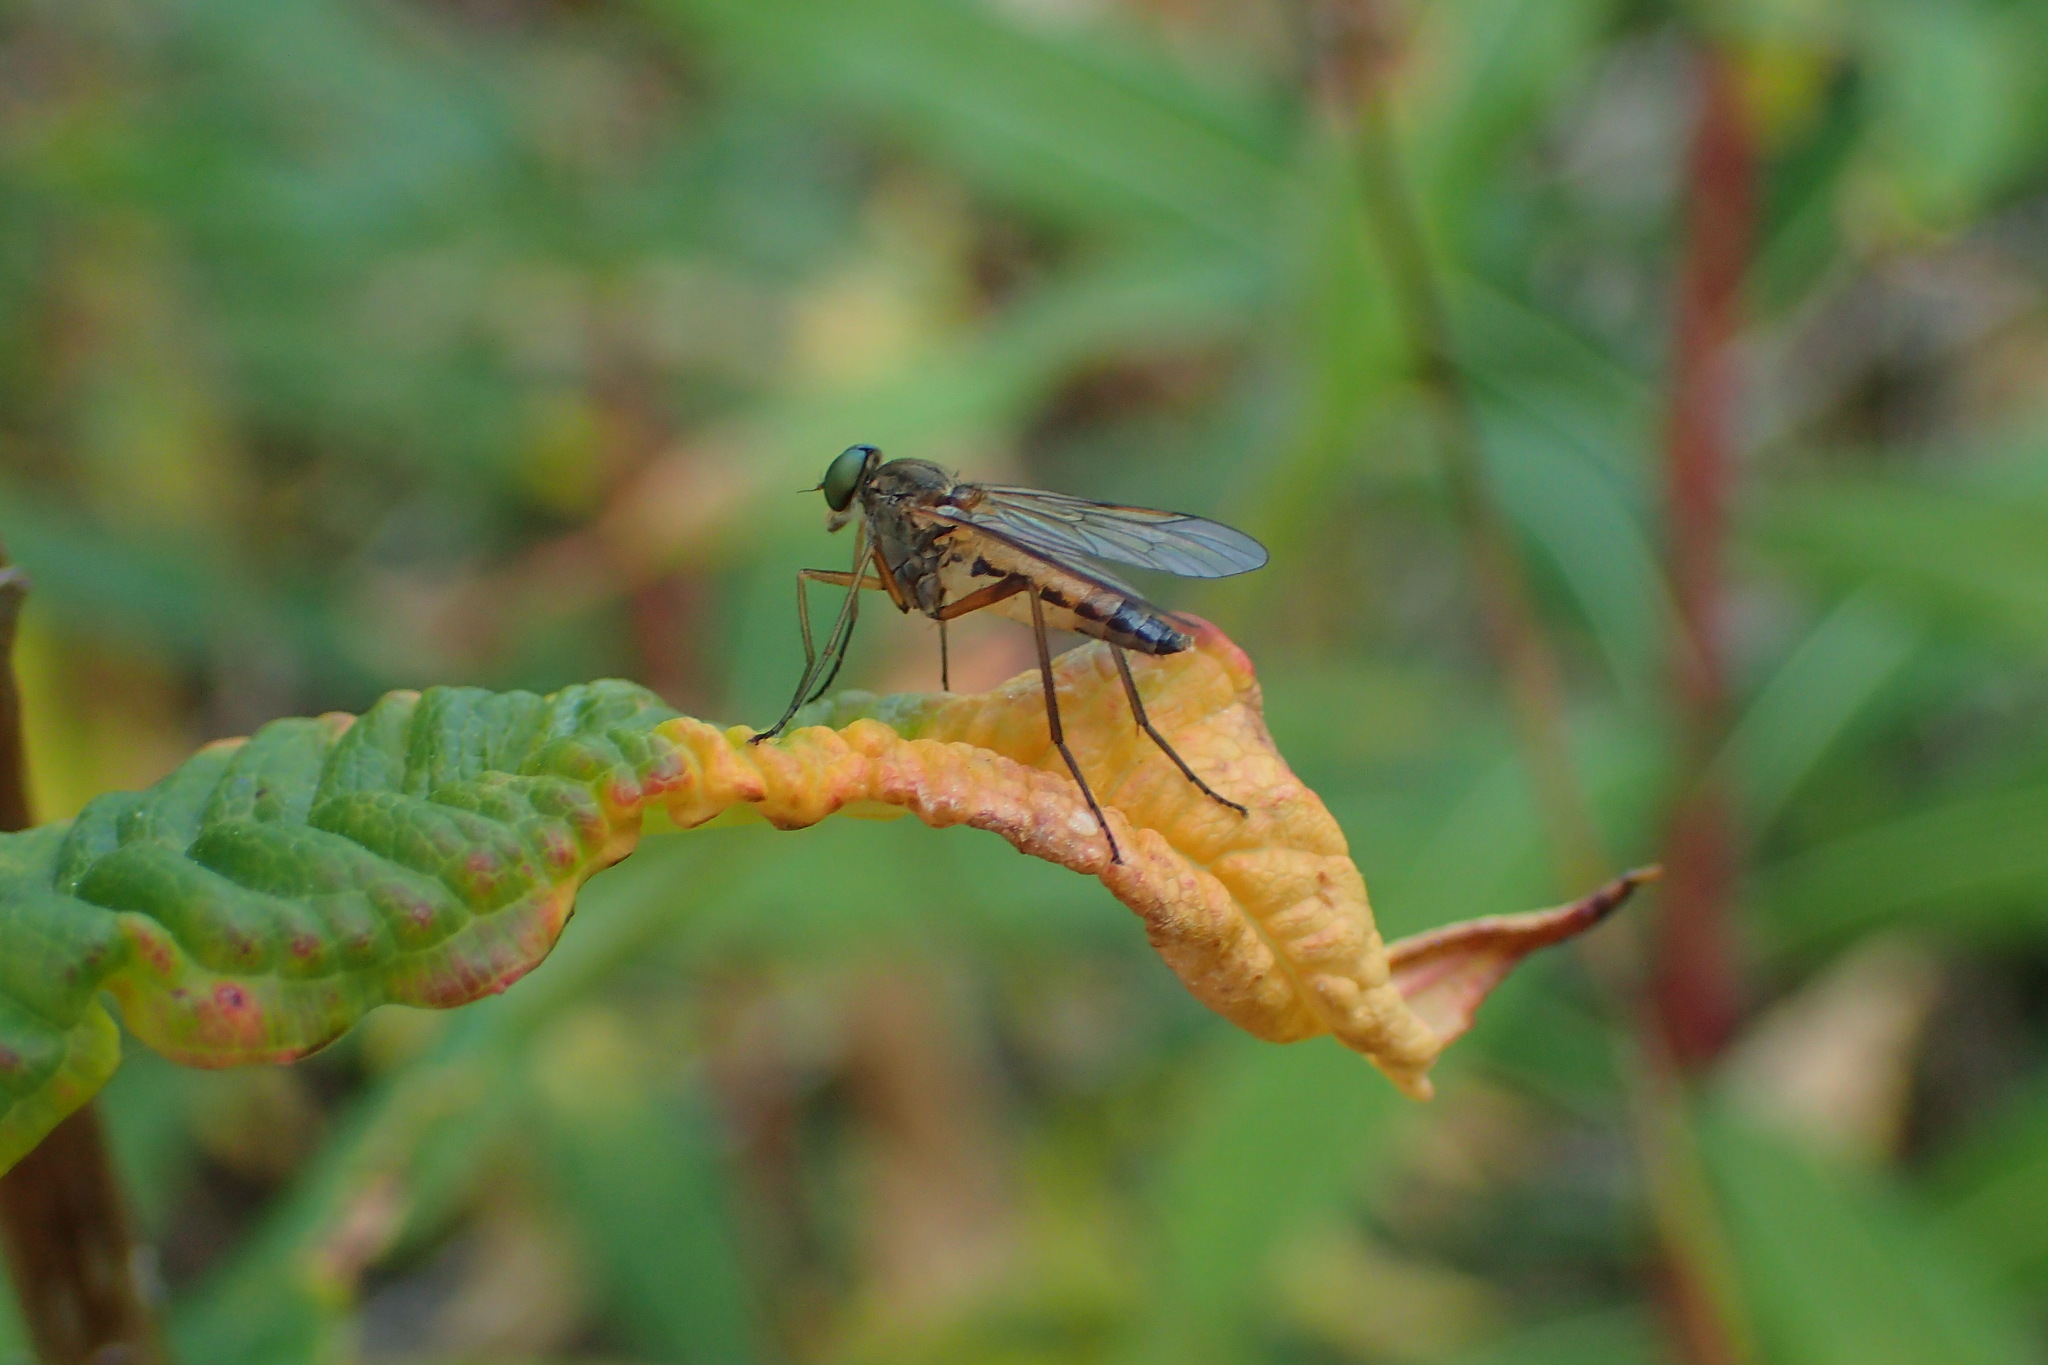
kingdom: Animalia
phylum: Arthropoda
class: Insecta
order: Diptera
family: Rhagionidae
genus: Rhagio
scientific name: Rhagio tringaria
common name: Marsh snipefly
